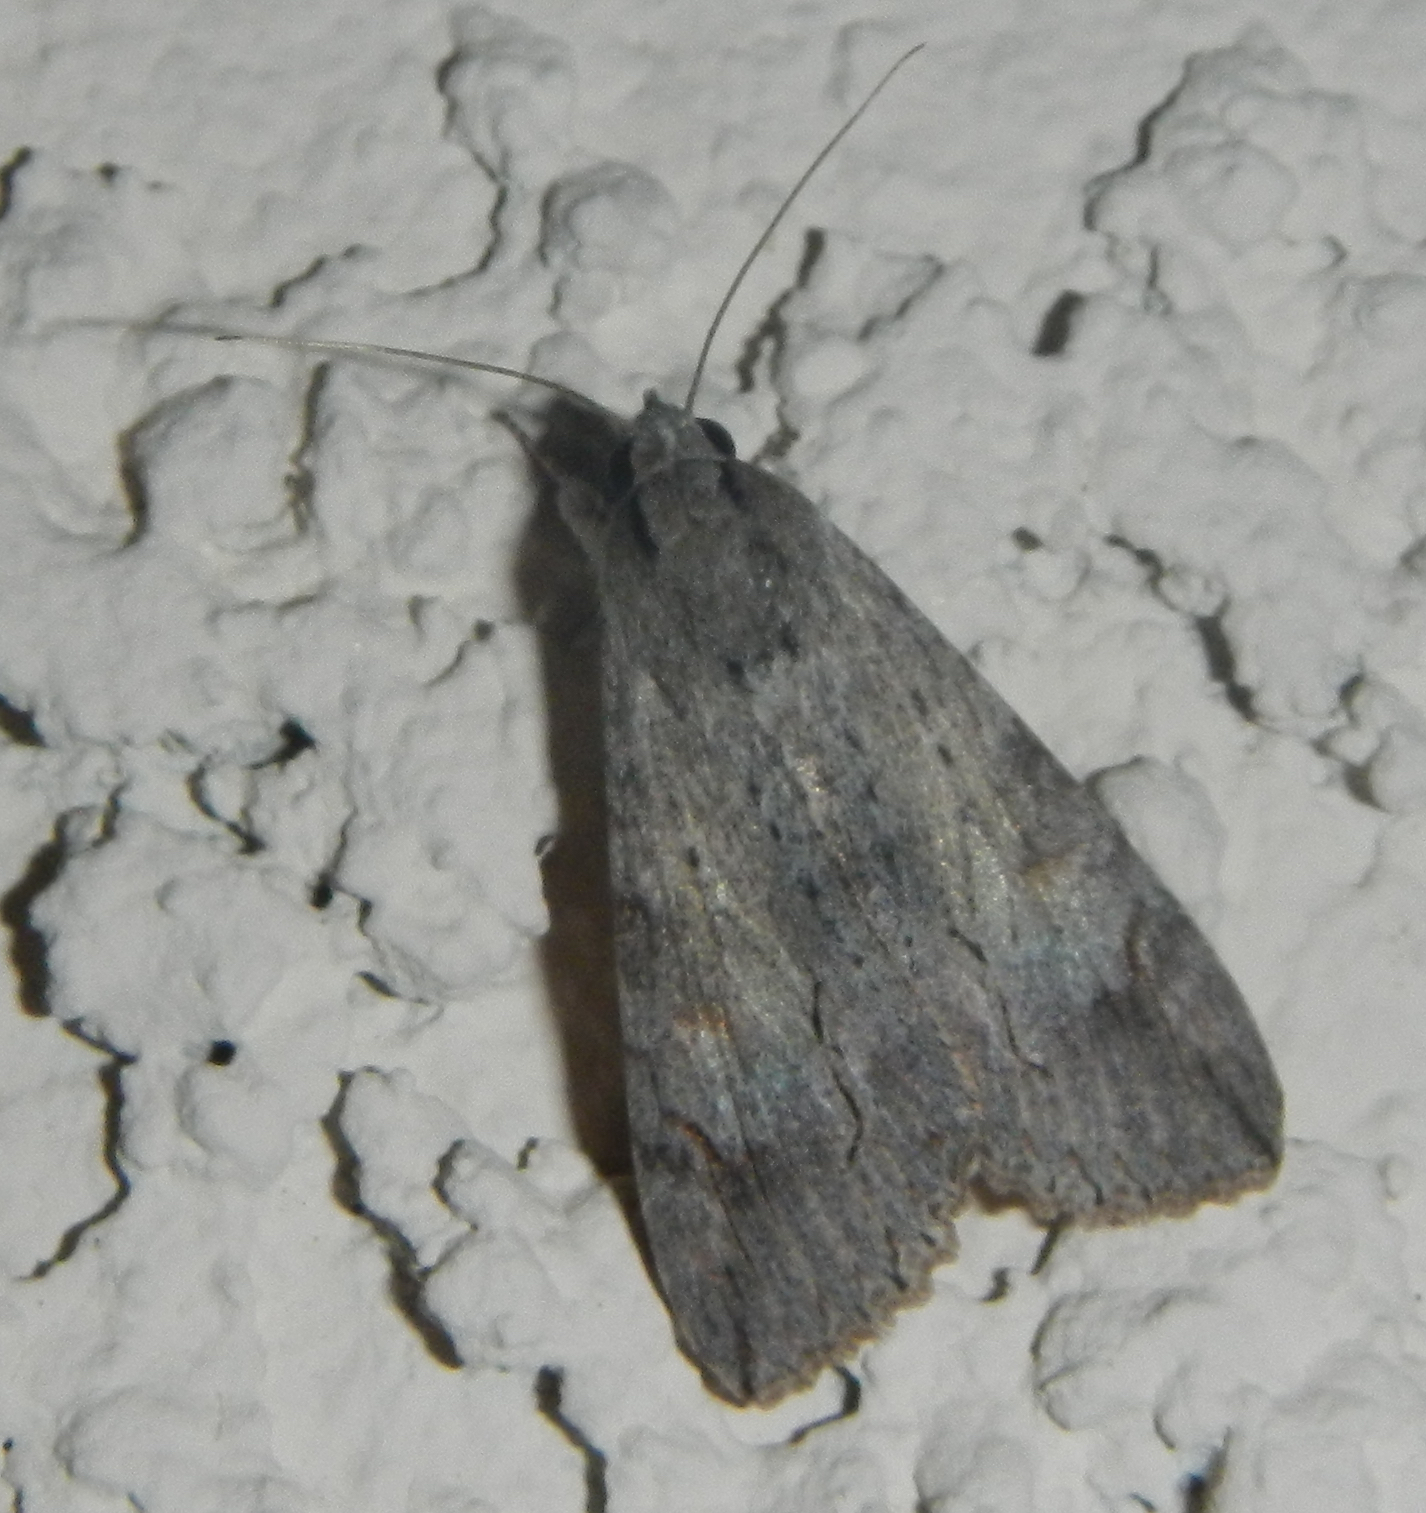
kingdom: Animalia
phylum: Arthropoda
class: Insecta
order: Lepidoptera
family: Erebidae
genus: Melipotis
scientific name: Melipotis acontioides
